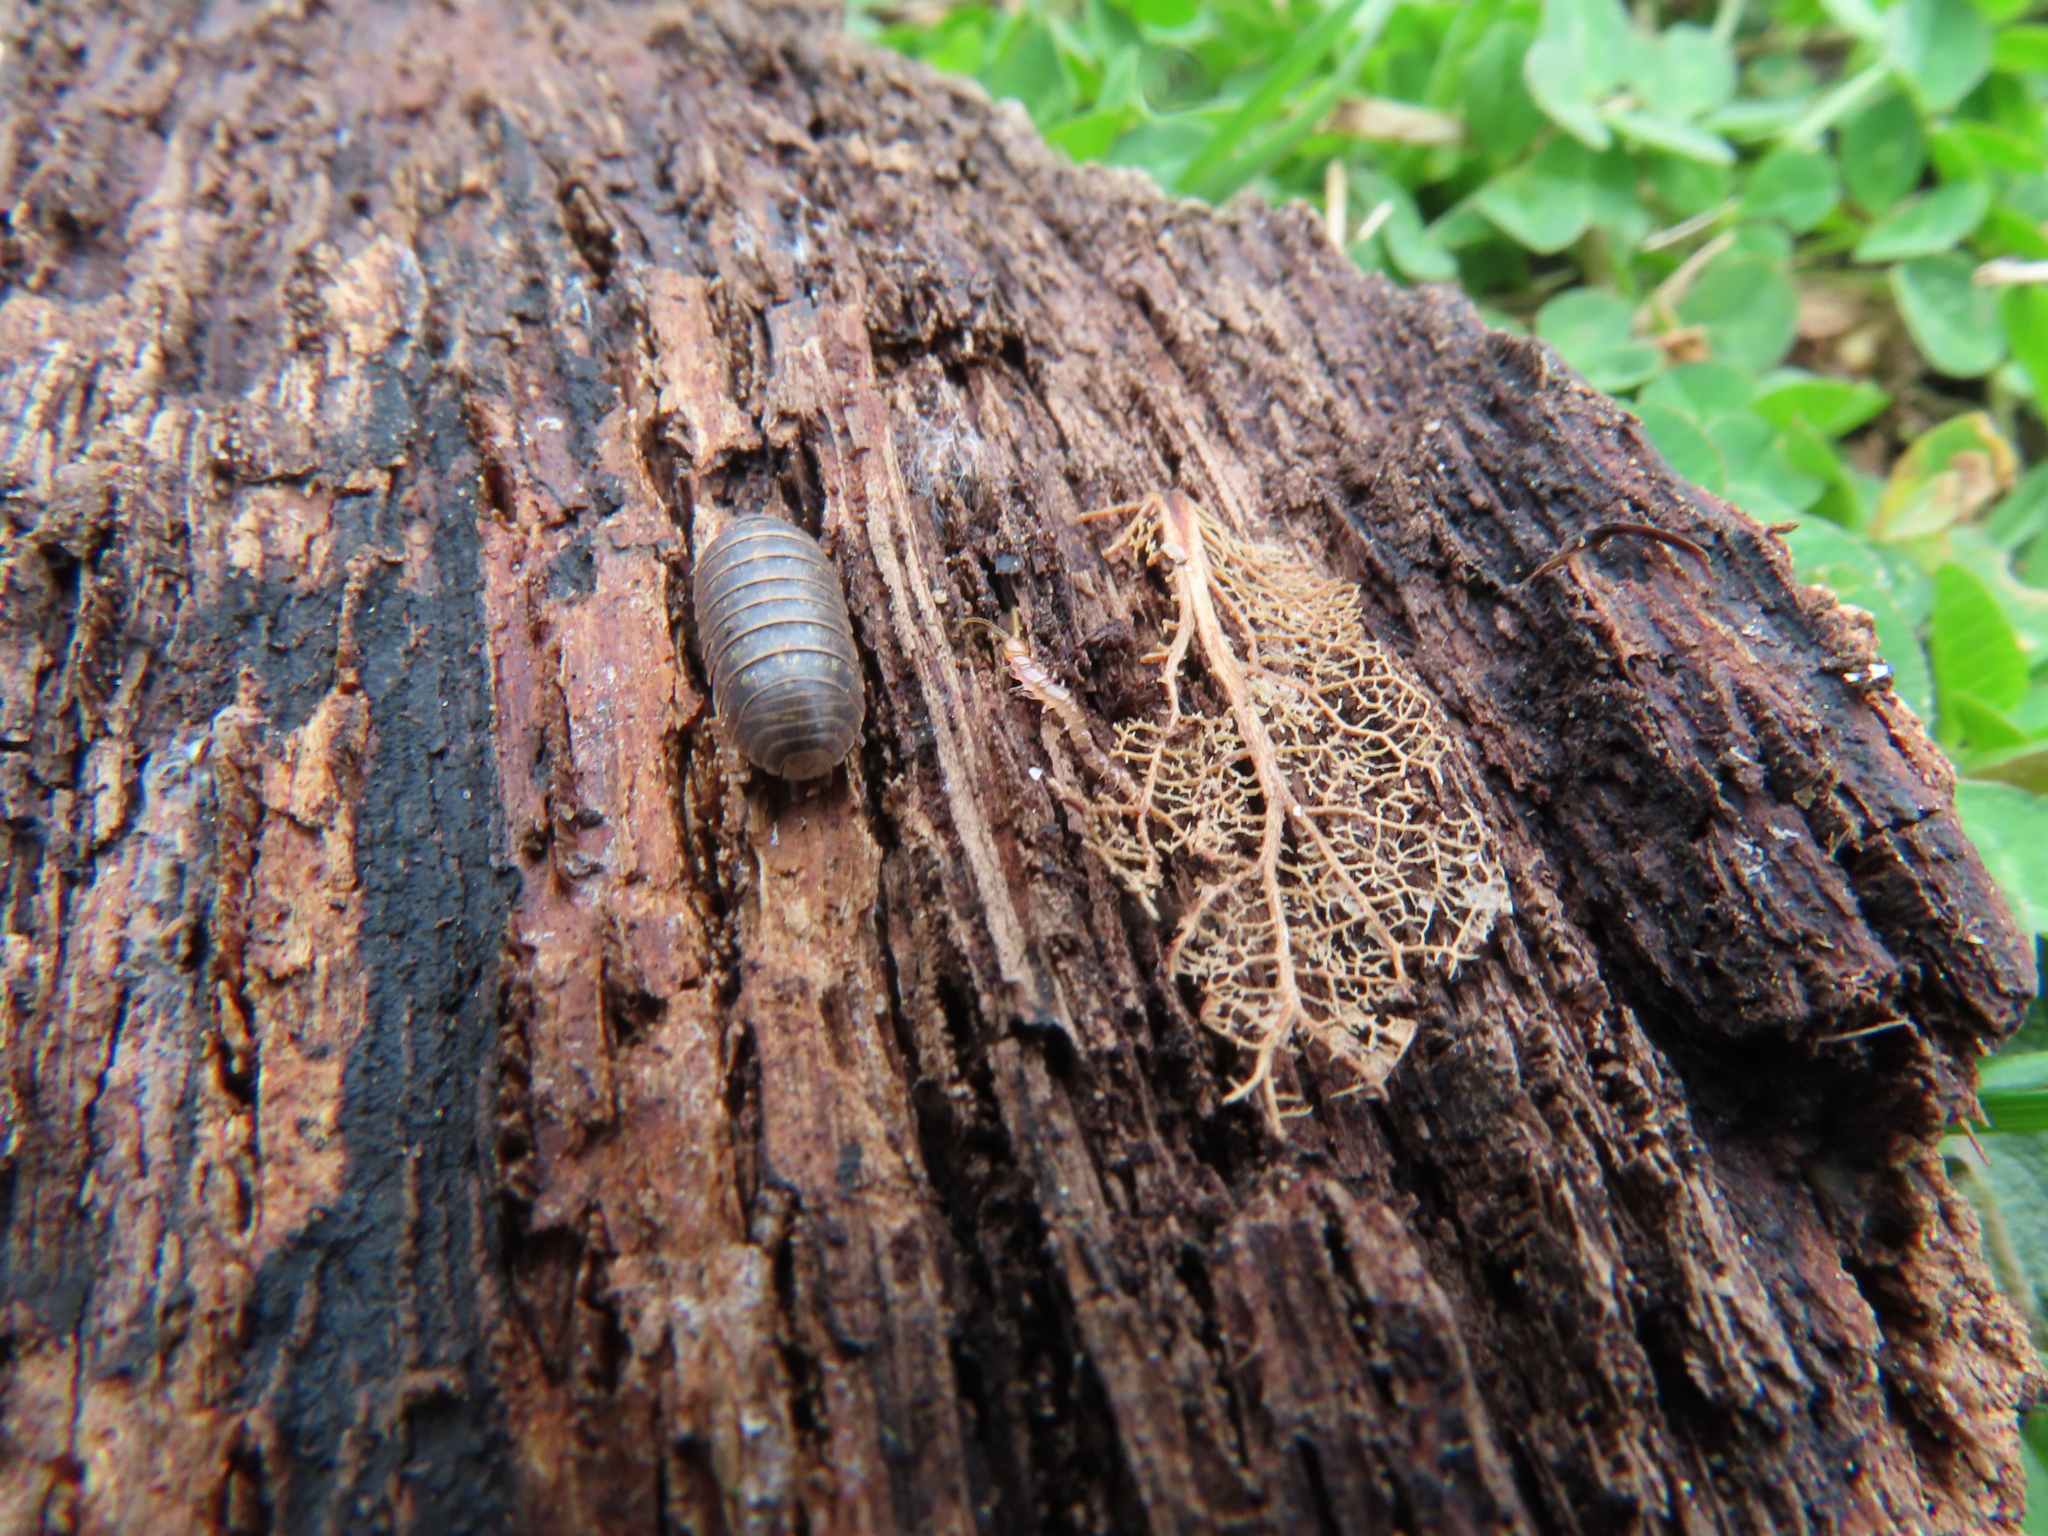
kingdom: Animalia
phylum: Arthropoda
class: Malacostraca
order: Isopoda
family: Armadillidiidae
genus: Armadillidium
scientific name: Armadillidium vulgare
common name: Common pill woodlouse
